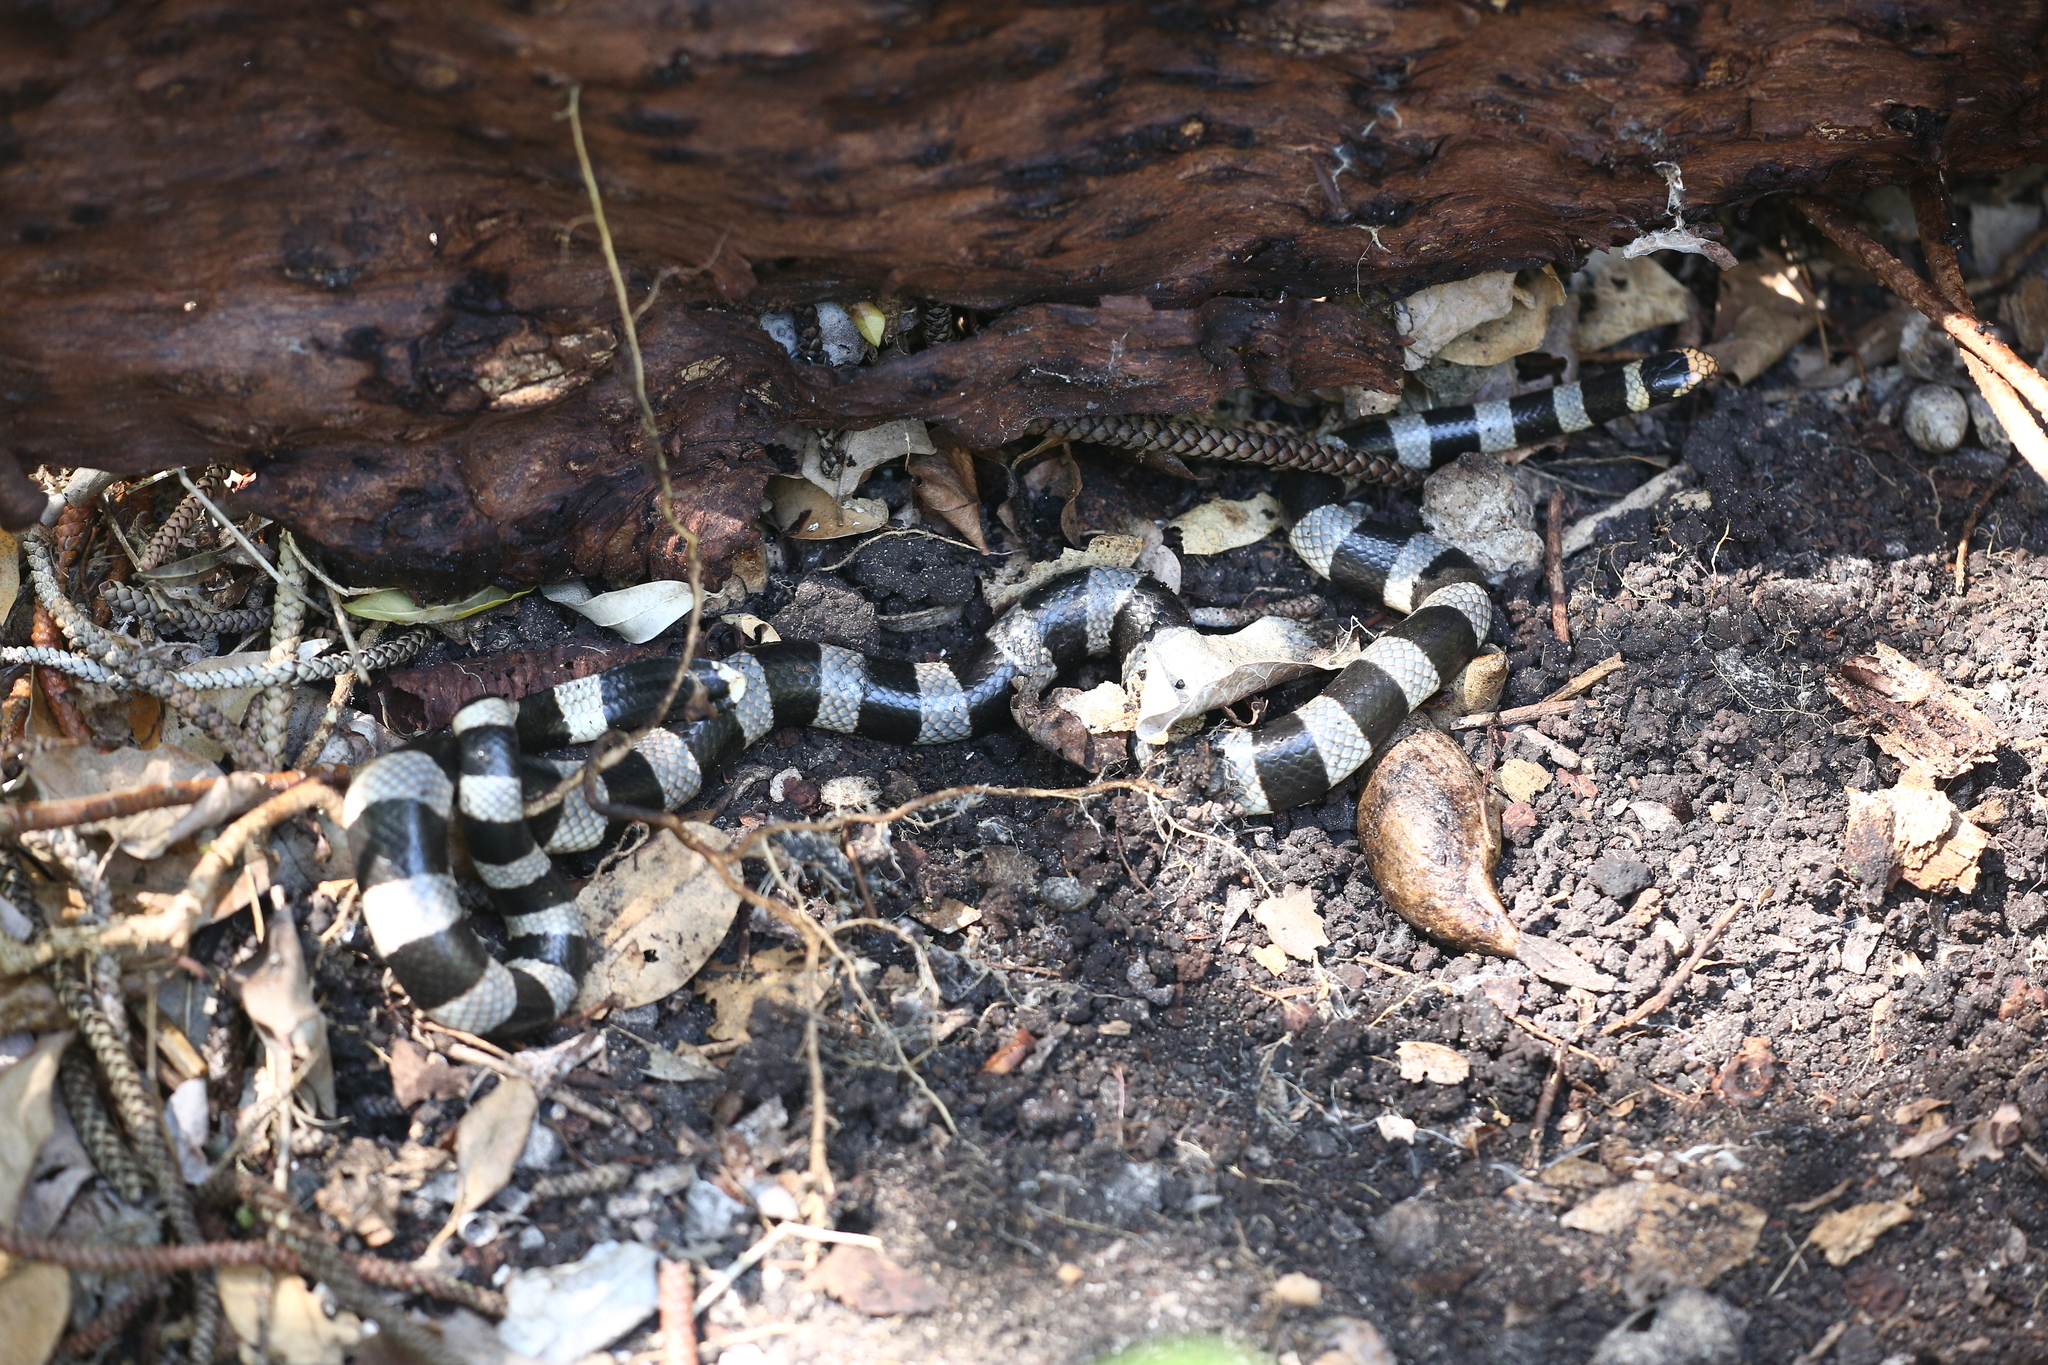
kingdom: Animalia
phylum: Chordata
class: Squamata
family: Elapidae
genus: Laticauda
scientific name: Laticauda saintgironsi
